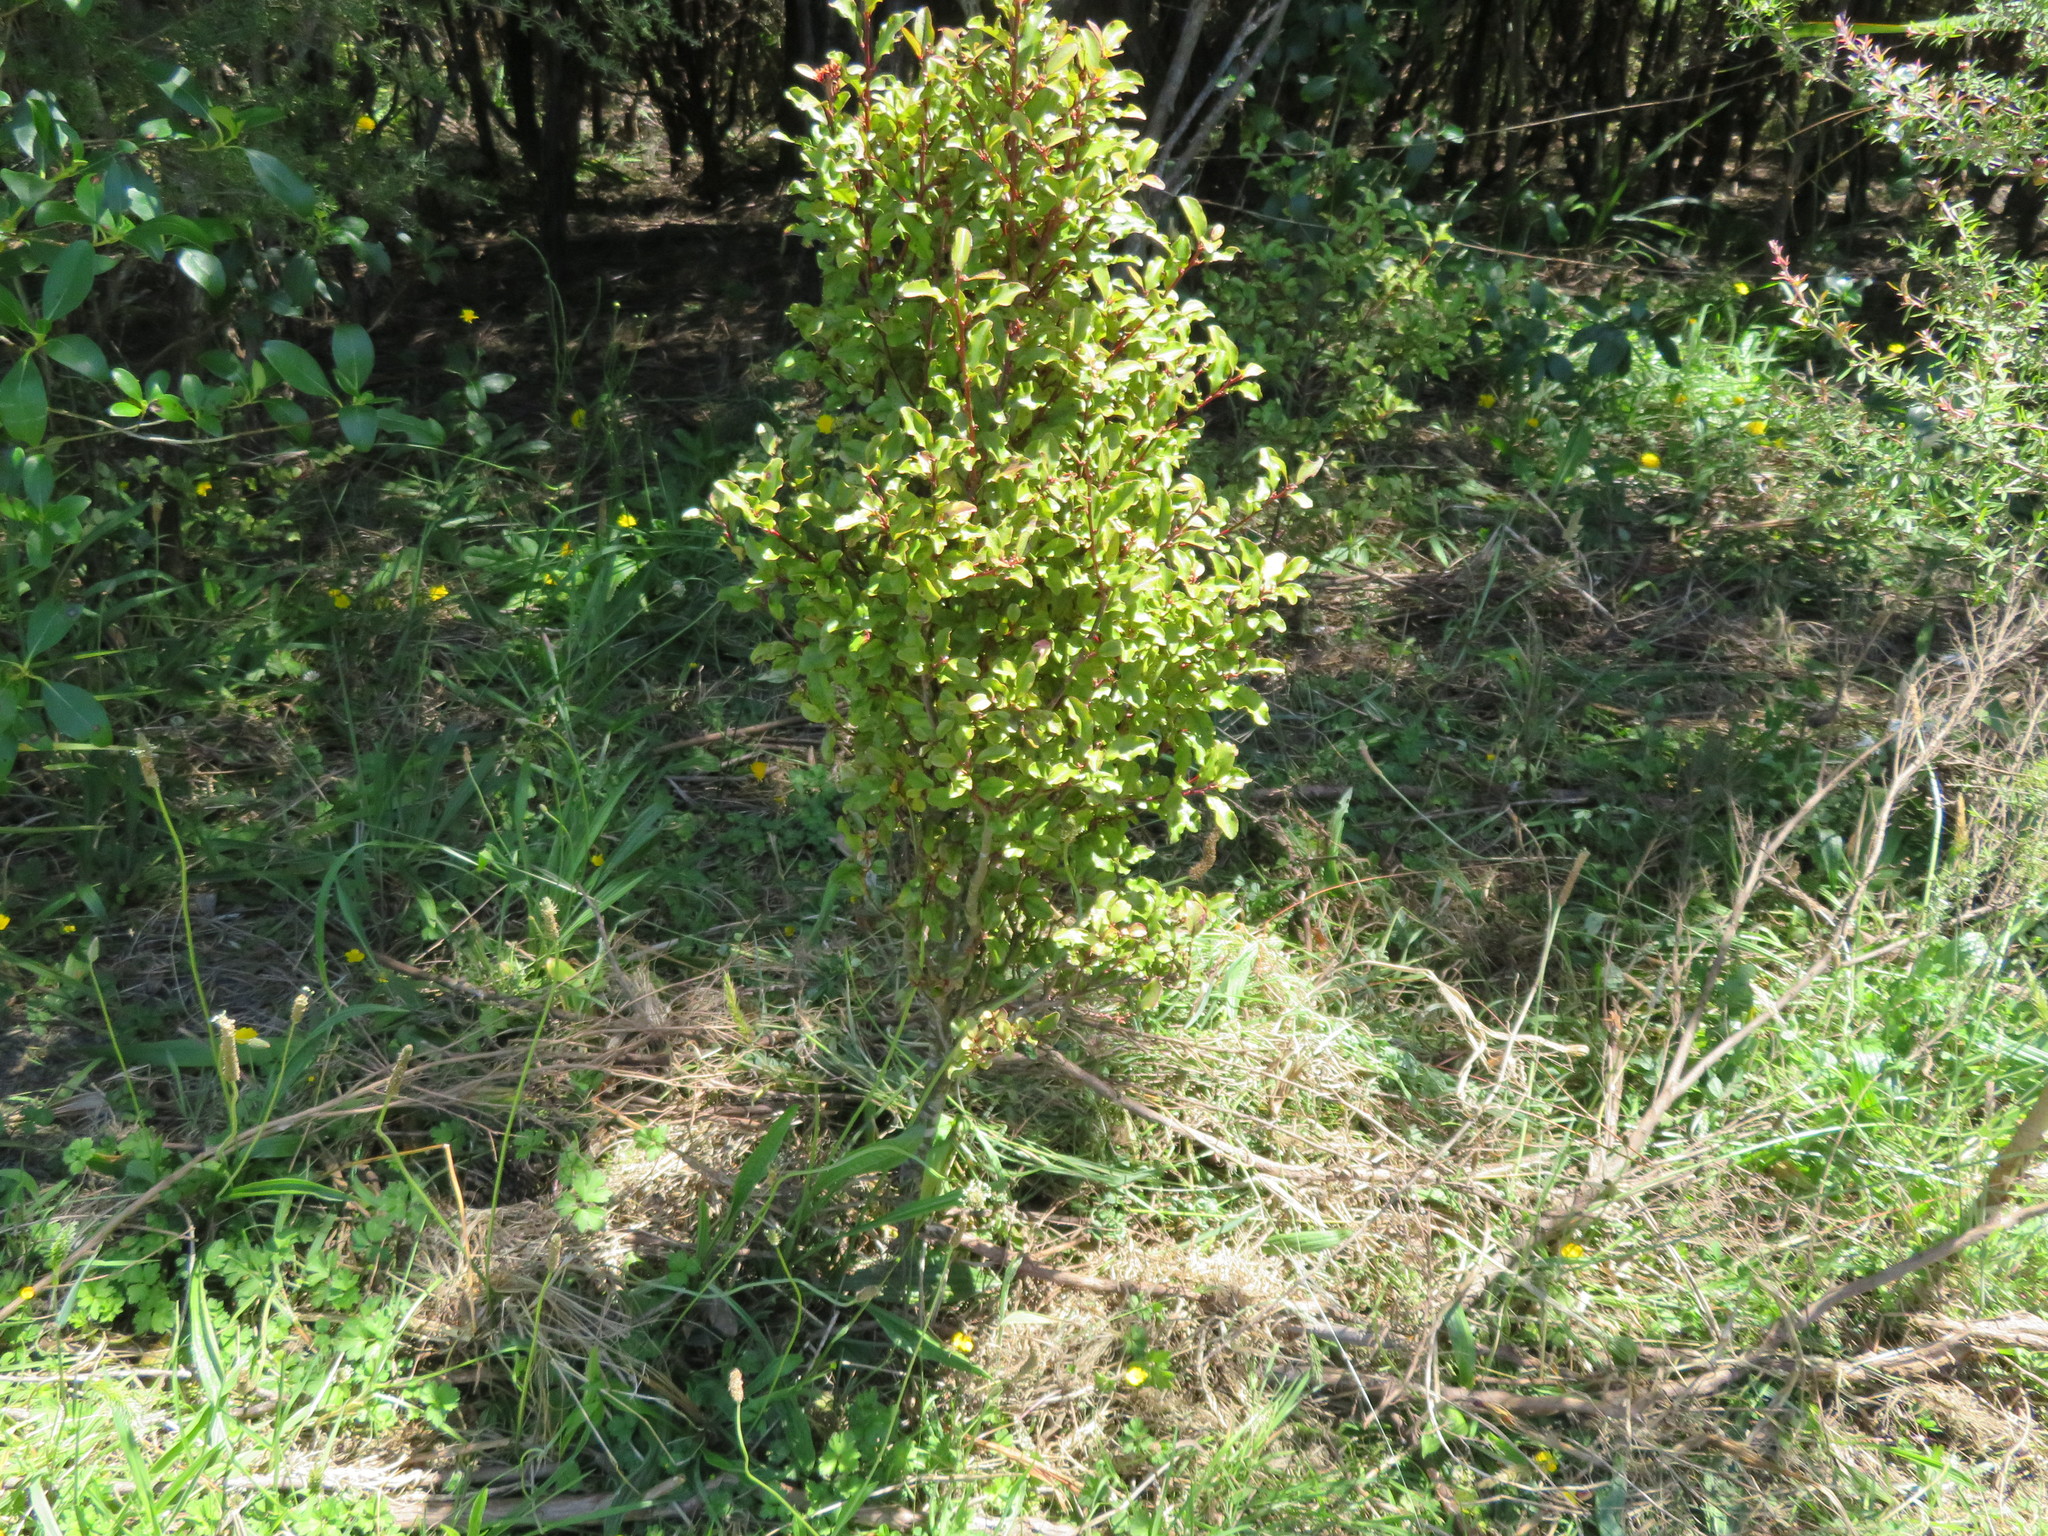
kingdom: Plantae
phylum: Tracheophyta
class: Magnoliopsida
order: Ericales
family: Primulaceae
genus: Myrsine
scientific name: Myrsine australis
